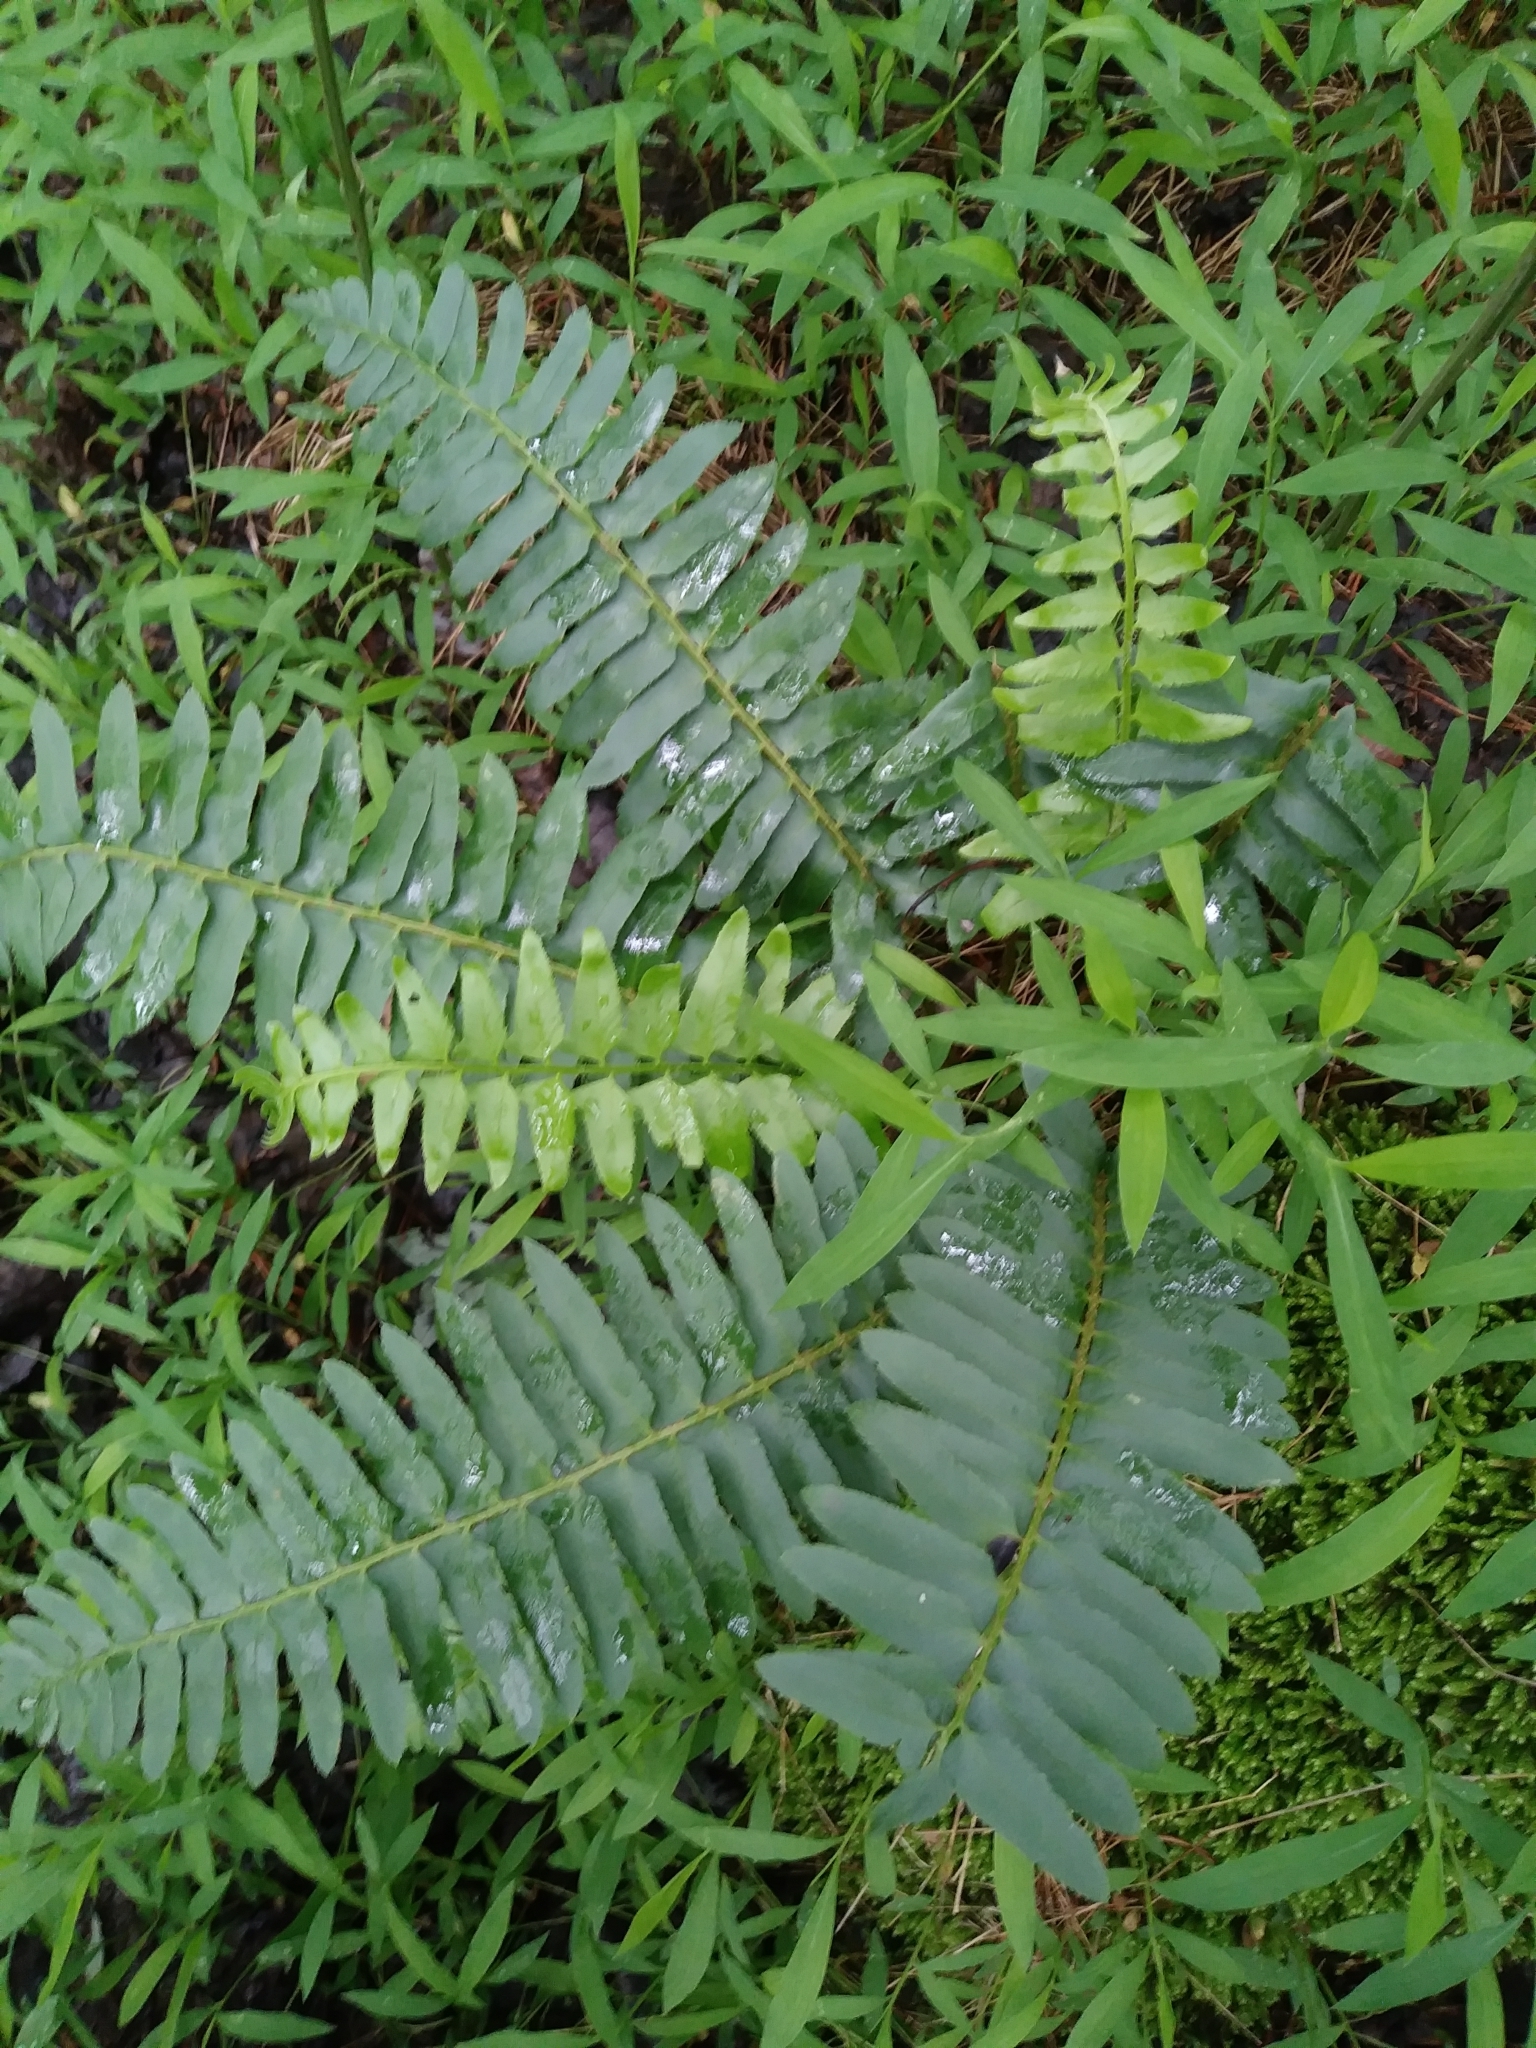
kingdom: Plantae
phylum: Tracheophyta
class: Polypodiopsida
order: Polypodiales
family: Dryopteridaceae
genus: Polystichum
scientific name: Polystichum acrostichoides
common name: Christmas fern
